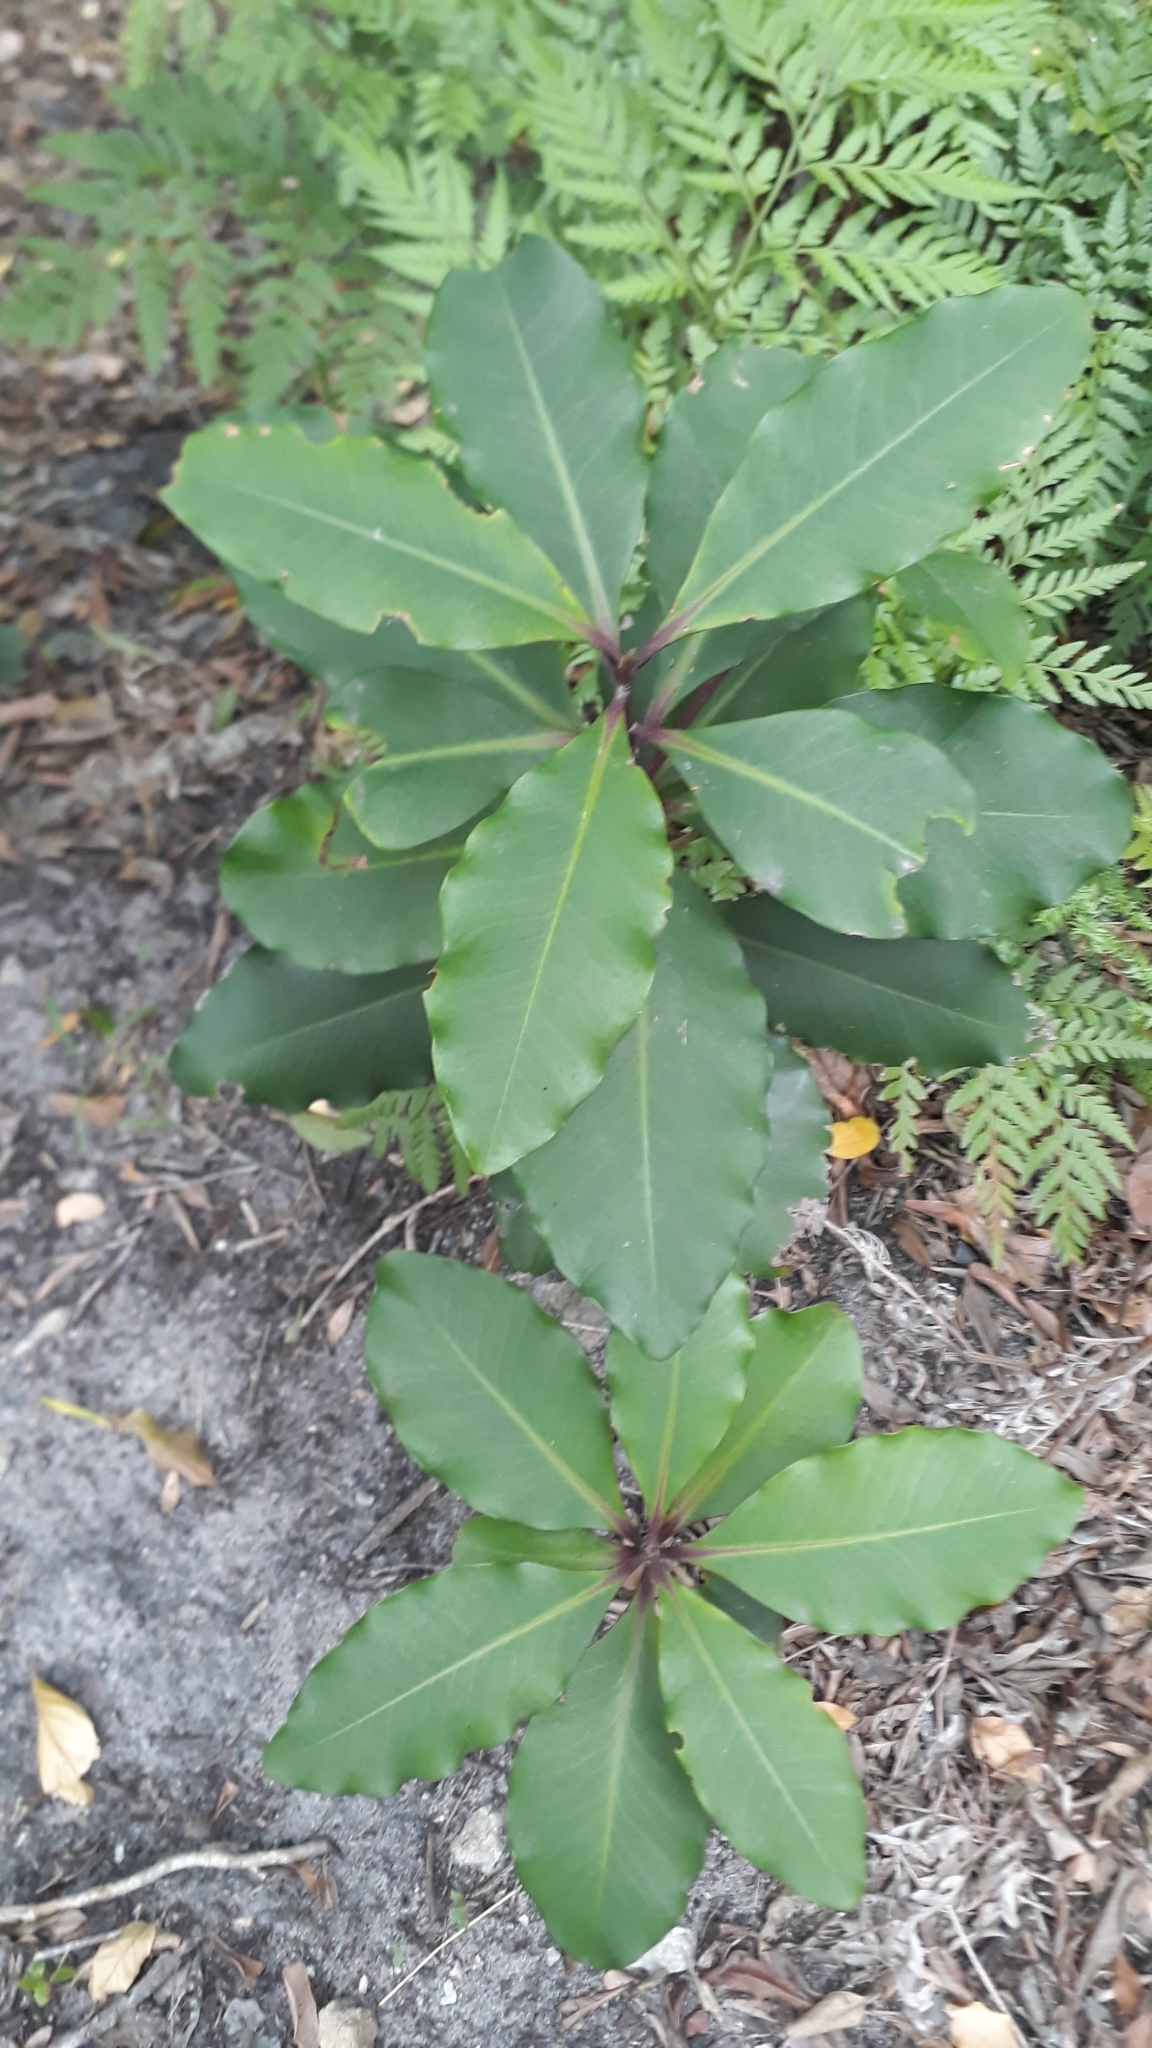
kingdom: Plantae
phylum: Tracheophyta
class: Magnoliopsida
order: Ericales
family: Primulaceae
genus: Myrsine
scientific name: Myrsine melanophloeos
